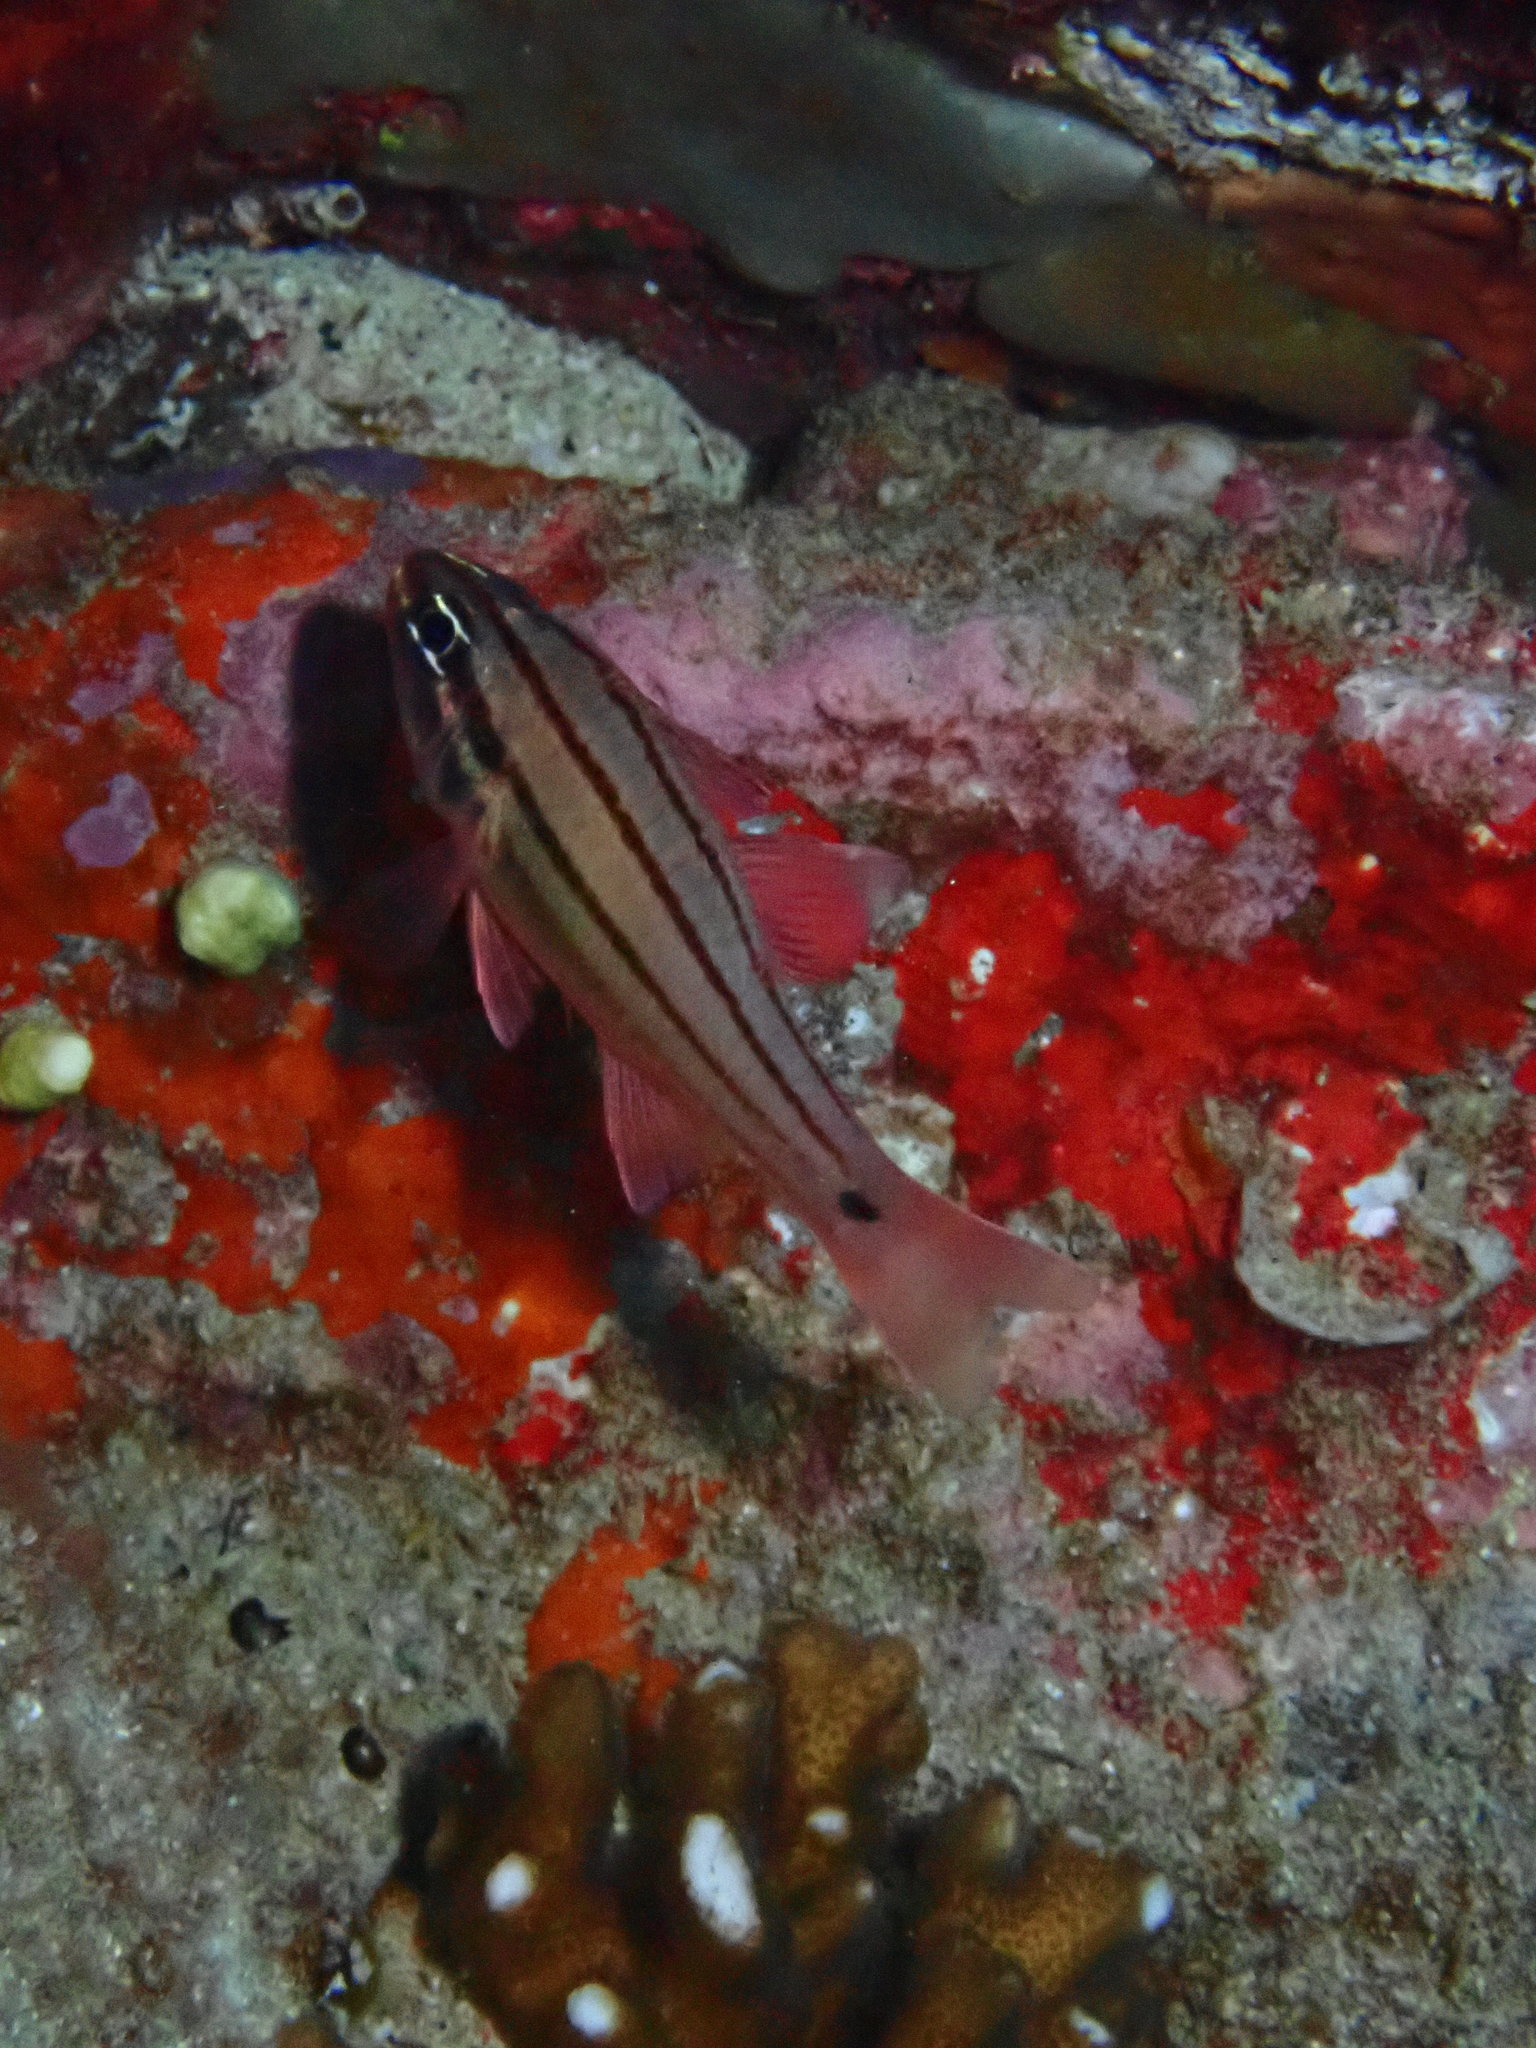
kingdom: Animalia
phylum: Chordata
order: Perciformes
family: Apogonidae
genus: Ostorhinchus
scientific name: Ostorhinchus doederleini
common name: Doederlein's cardinalfish
